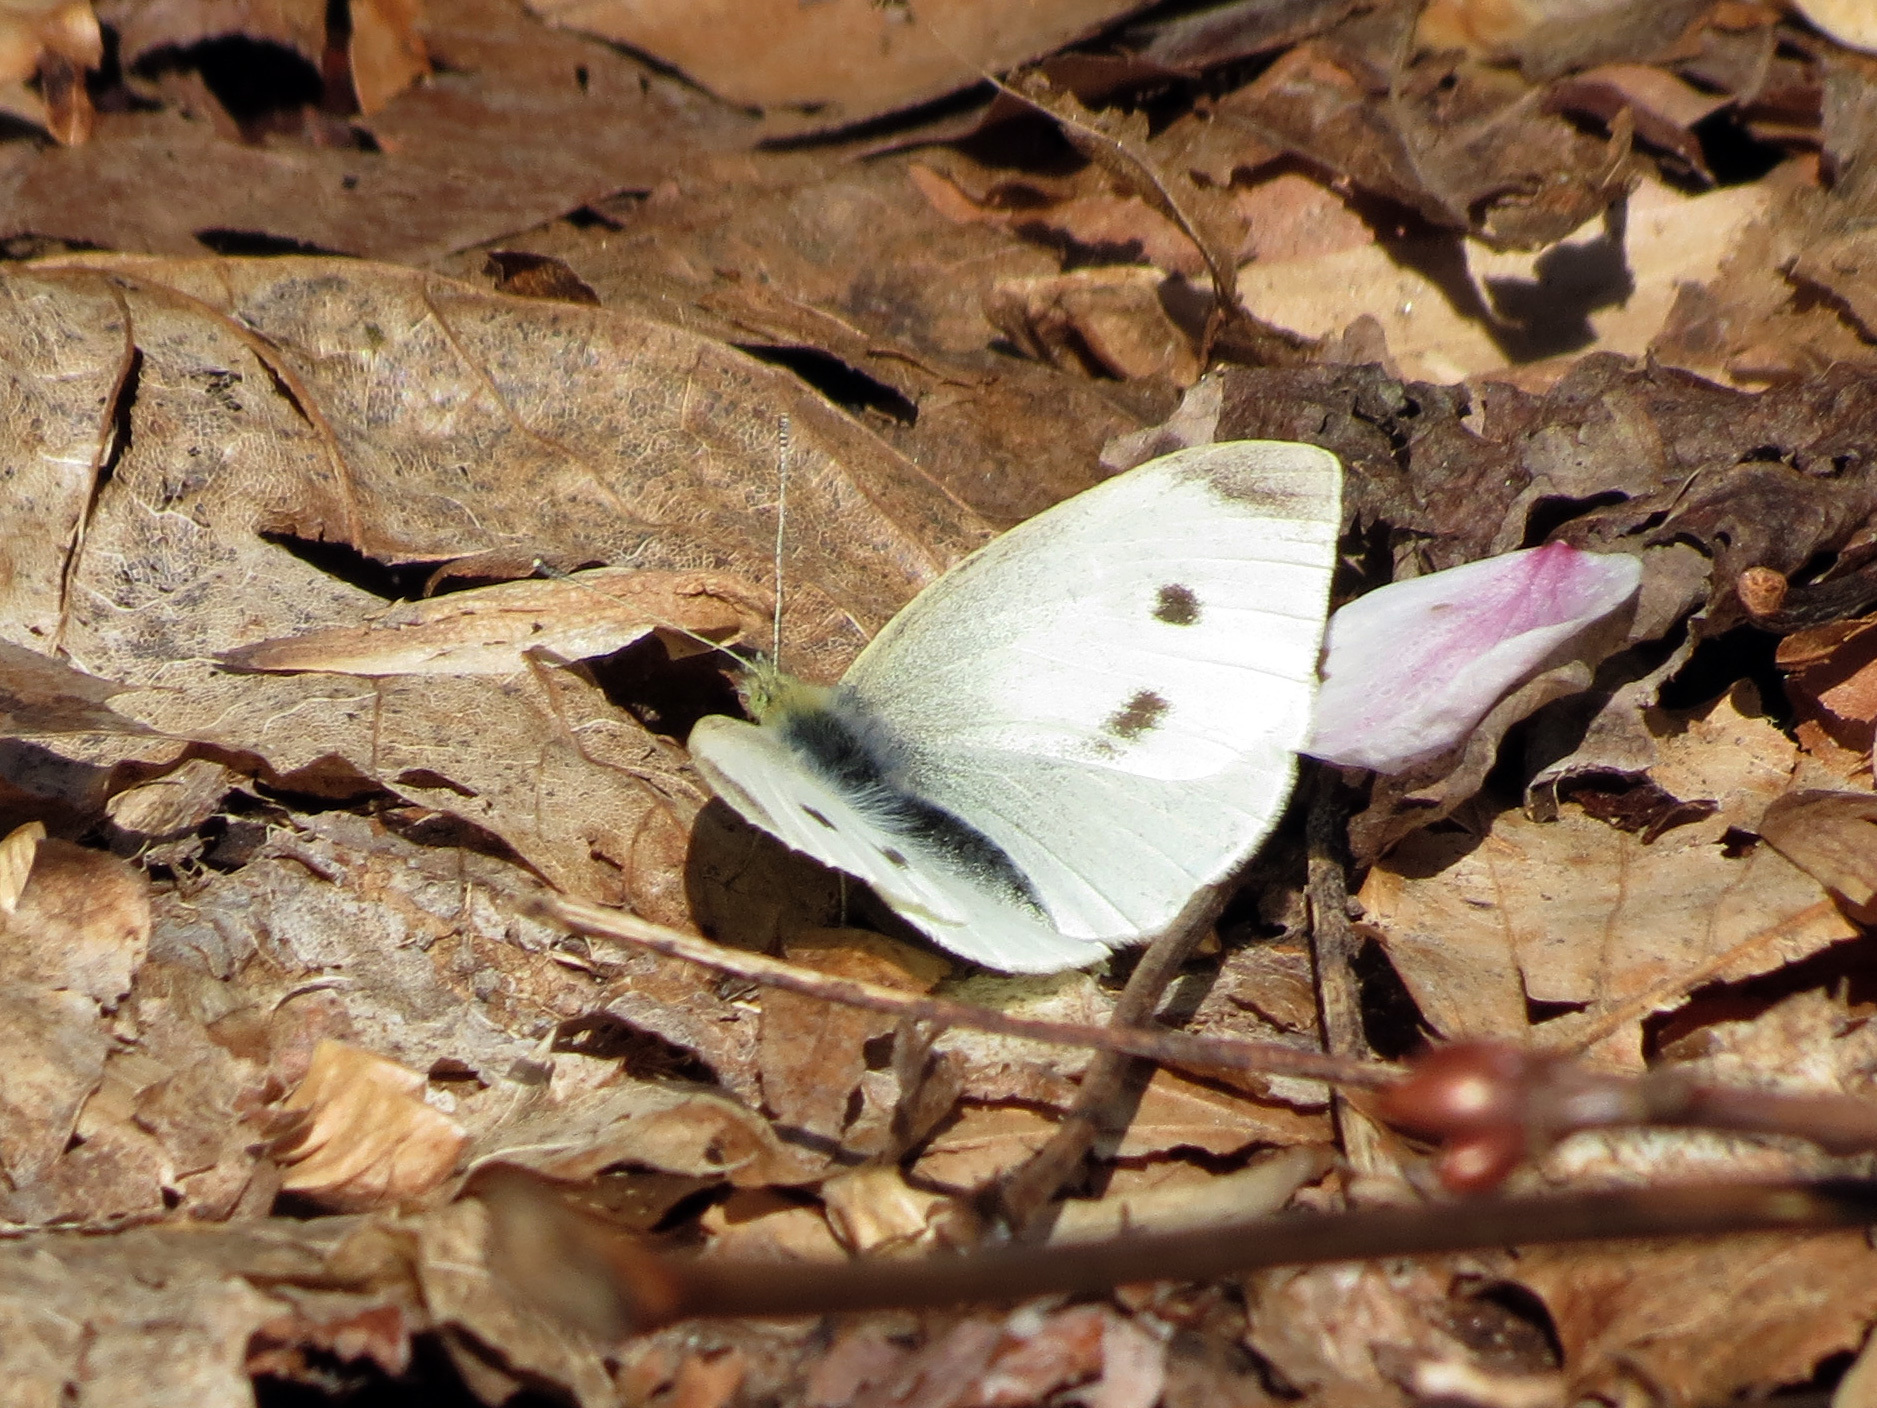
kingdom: Animalia
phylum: Arthropoda
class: Insecta
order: Lepidoptera
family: Pieridae
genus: Pieris
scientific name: Pieris rapae
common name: Small white
